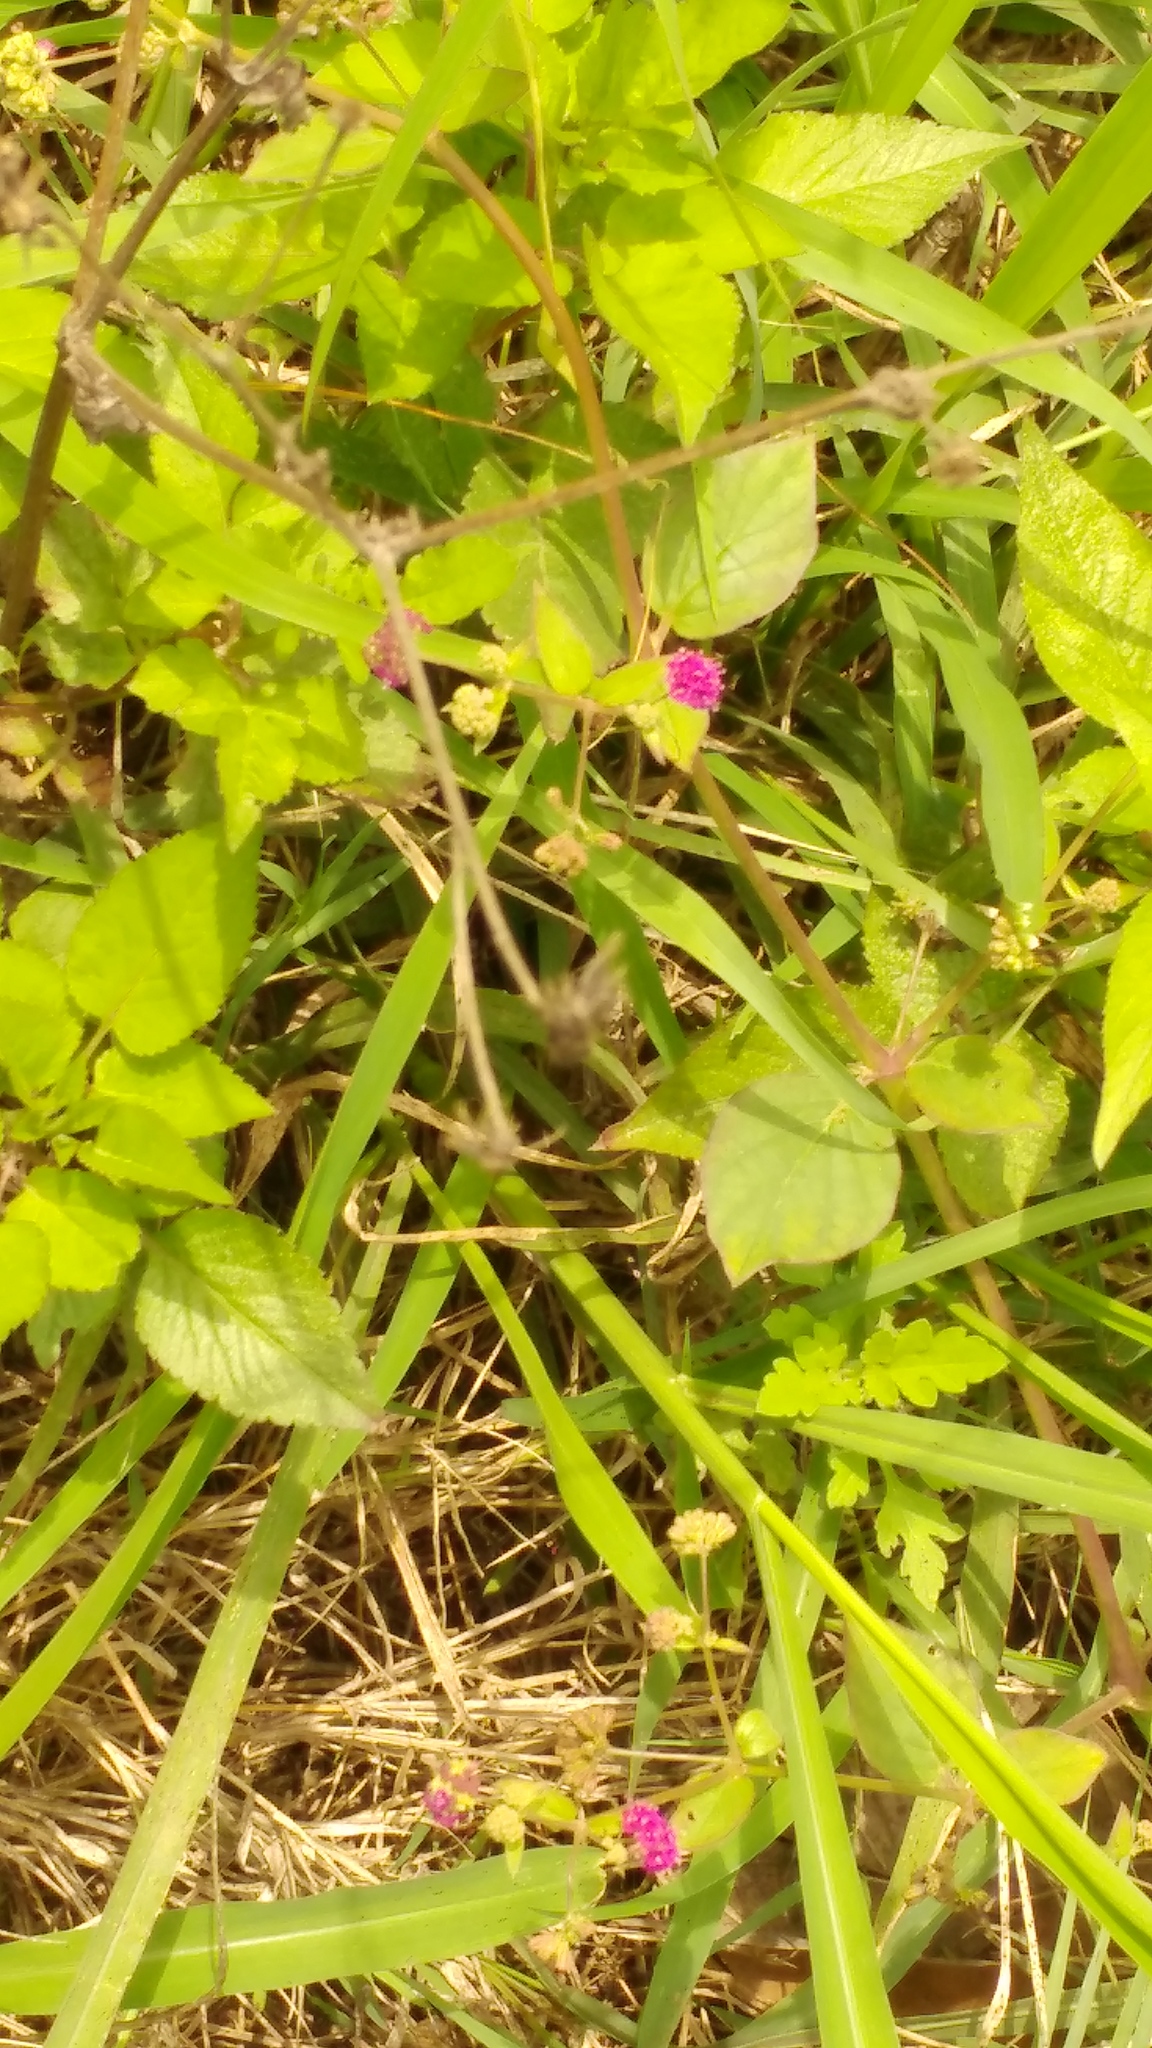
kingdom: Plantae
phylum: Tracheophyta
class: Magnoliopsida
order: Caryophyllales
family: Nyctaginaceae
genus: Boerhavia
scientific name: Boerhavia coccinea
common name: Scarlet spiderling
